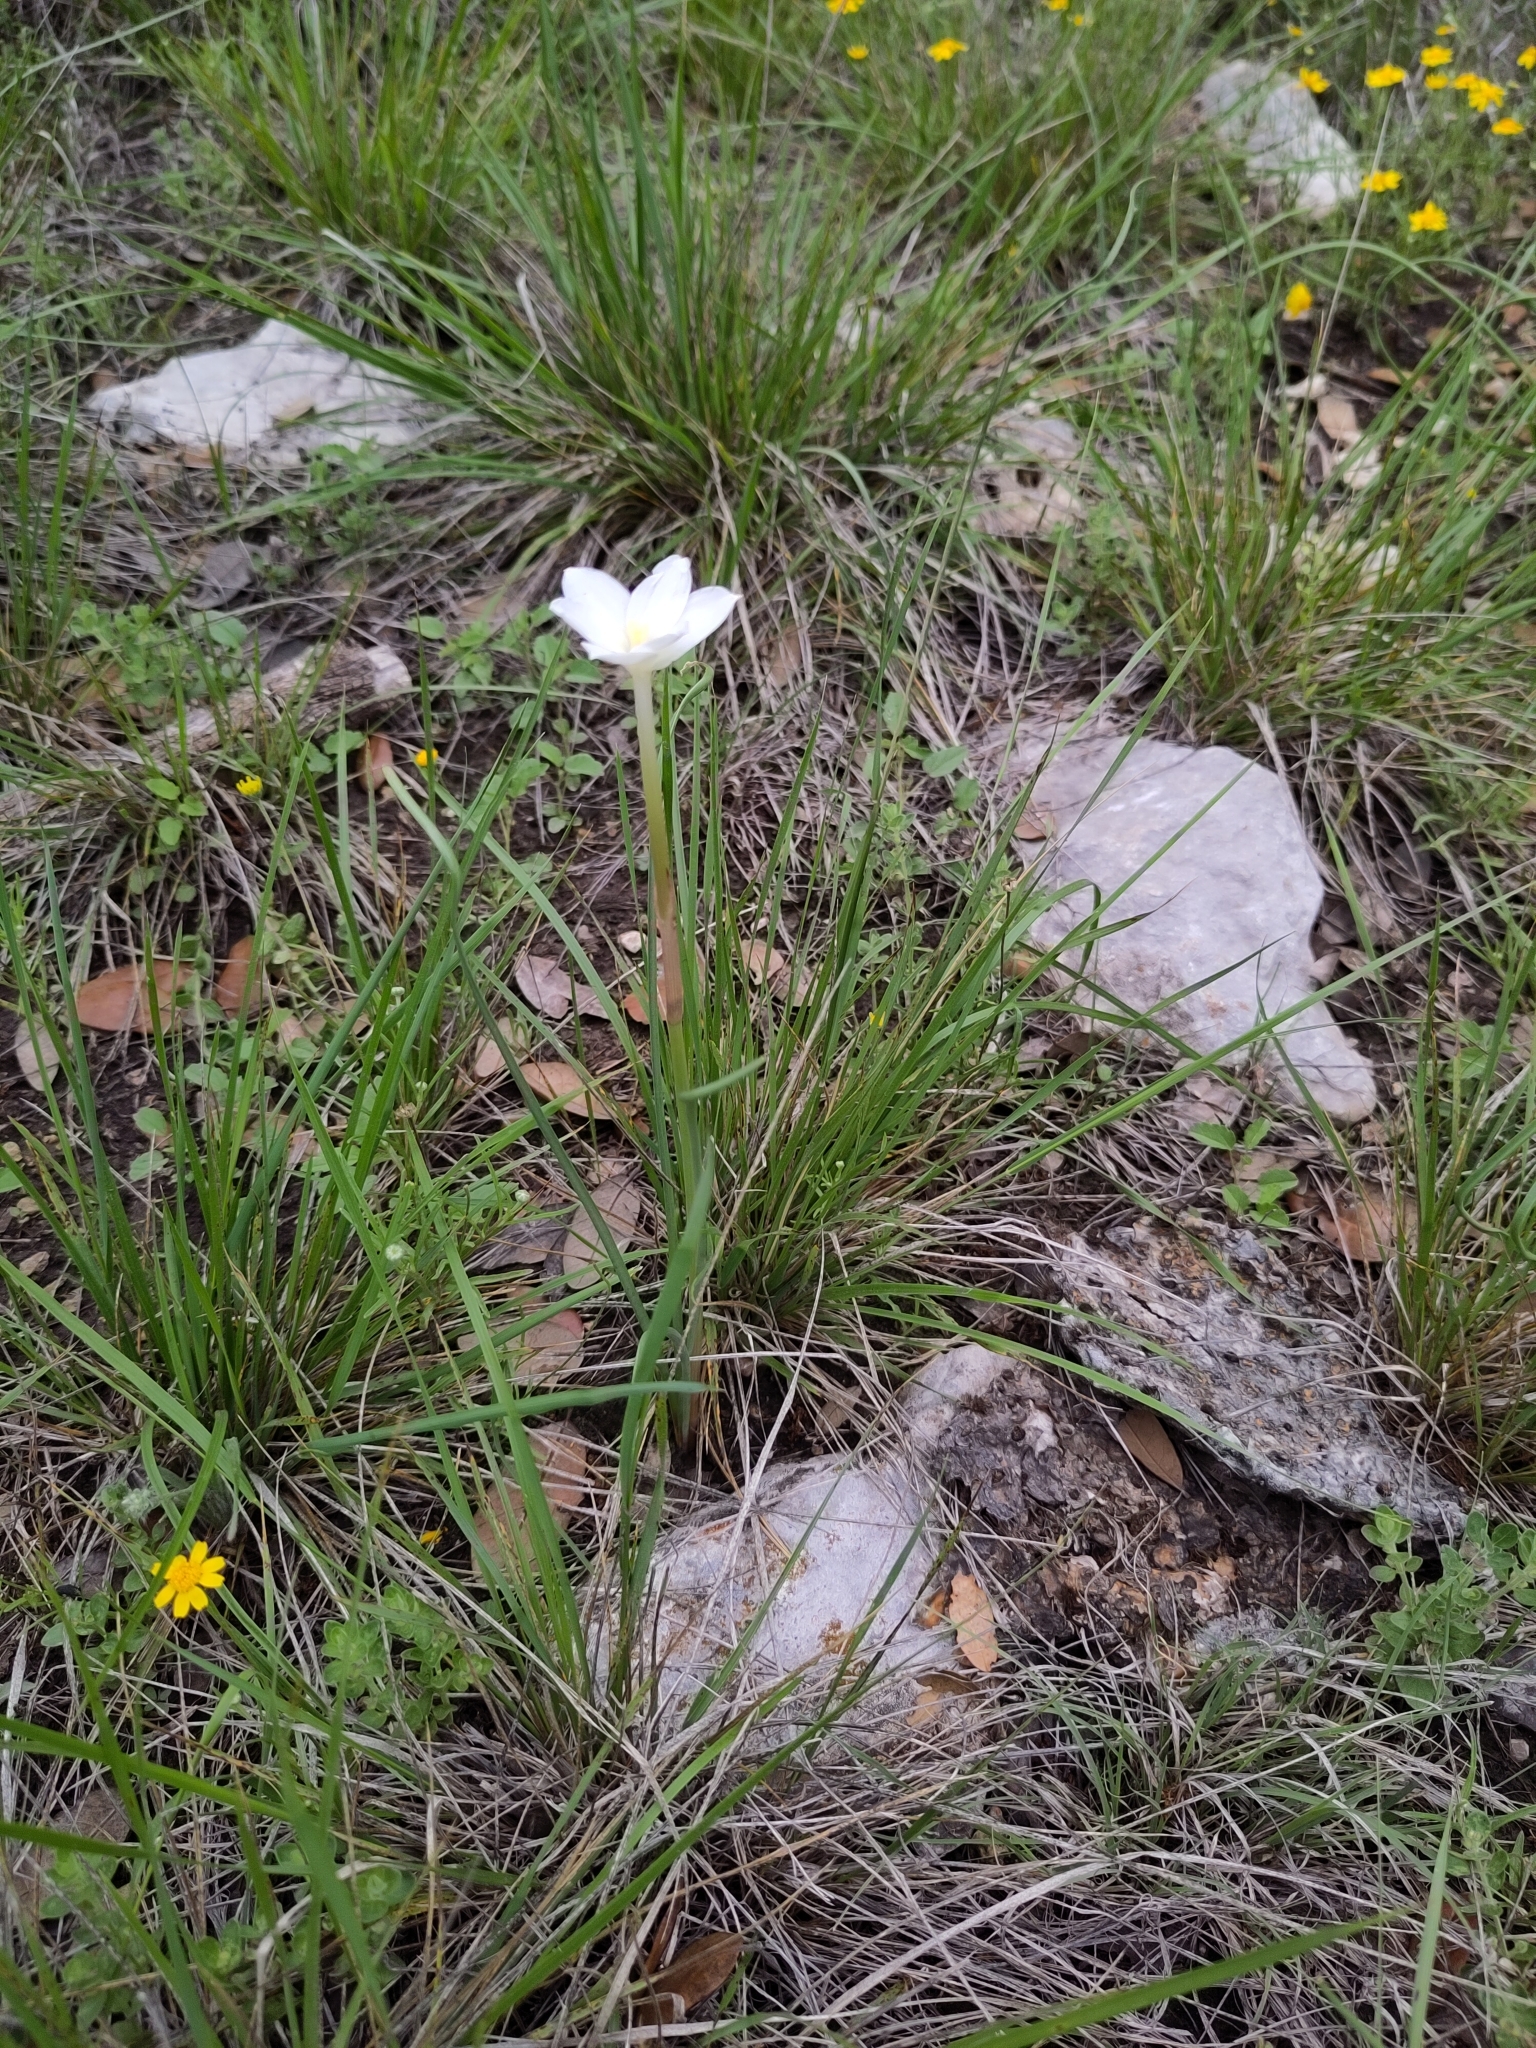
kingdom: Plantae
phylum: Tracheophyta
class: Liliopsida
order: Asparagales
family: Amaryllidaceae
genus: Zephyranthes
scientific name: Zephyranthes chlorosolen
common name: Evening rain-lily
